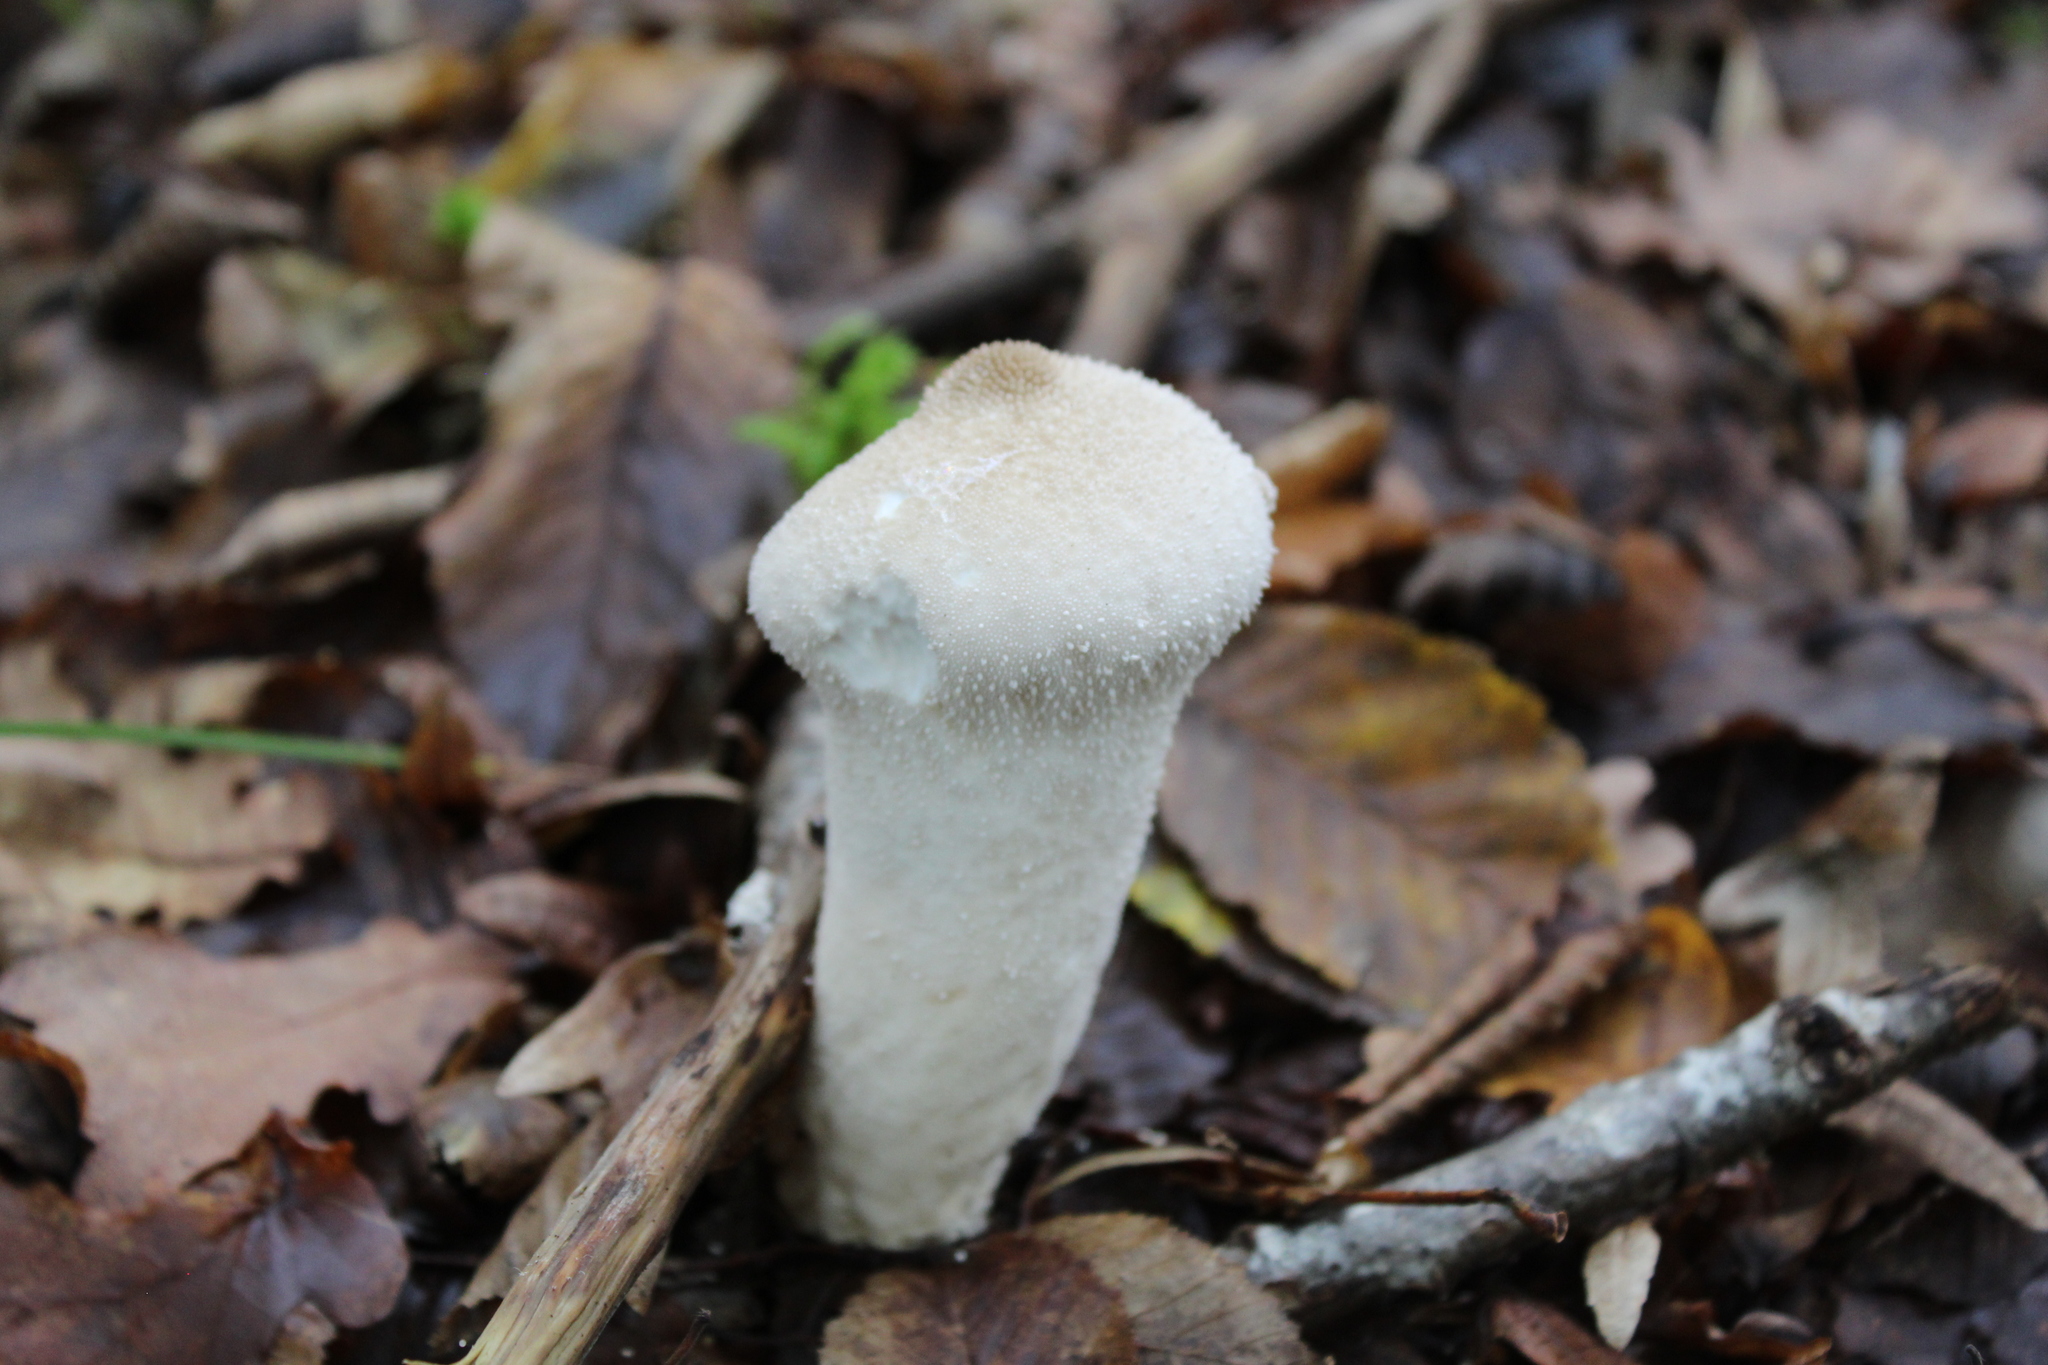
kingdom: Fungi
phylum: Basidiomycota
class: Agaricomycetes
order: Agaricales
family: Lycoperdaceae
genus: Lycoperdon
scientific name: Lycoperdon perlatum
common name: Common puffball
